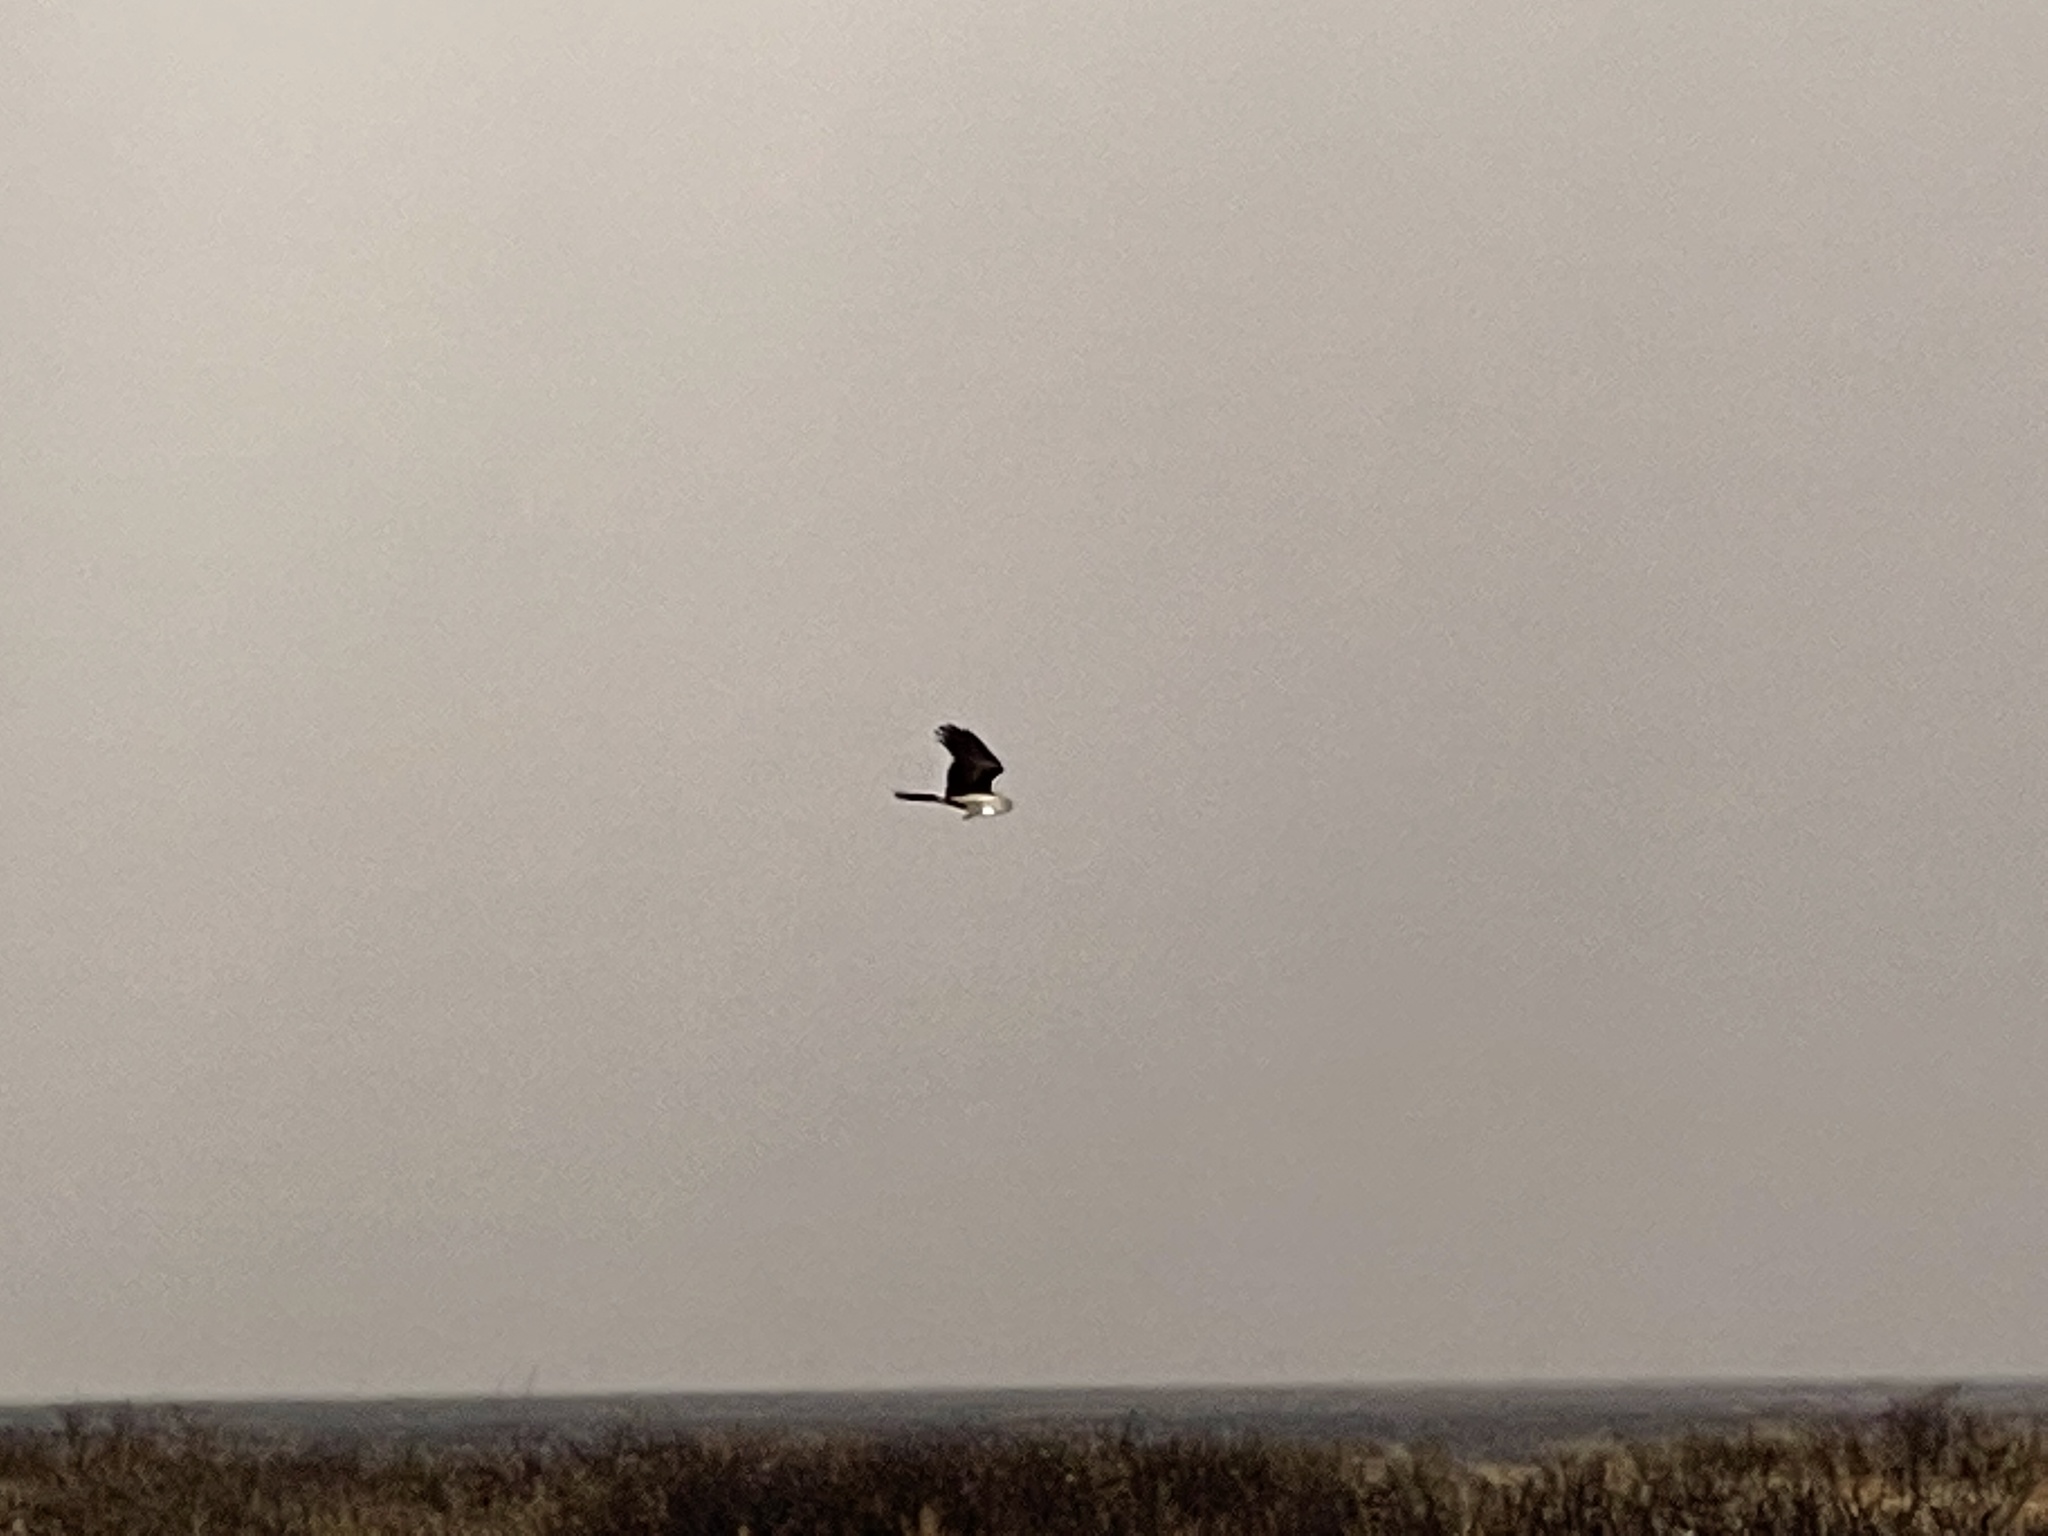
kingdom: Animalia
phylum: Chordata
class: Aves
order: Accipitriformes
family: Accipitridae
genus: Circus
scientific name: Circus cyaneus
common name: Hen harrier
